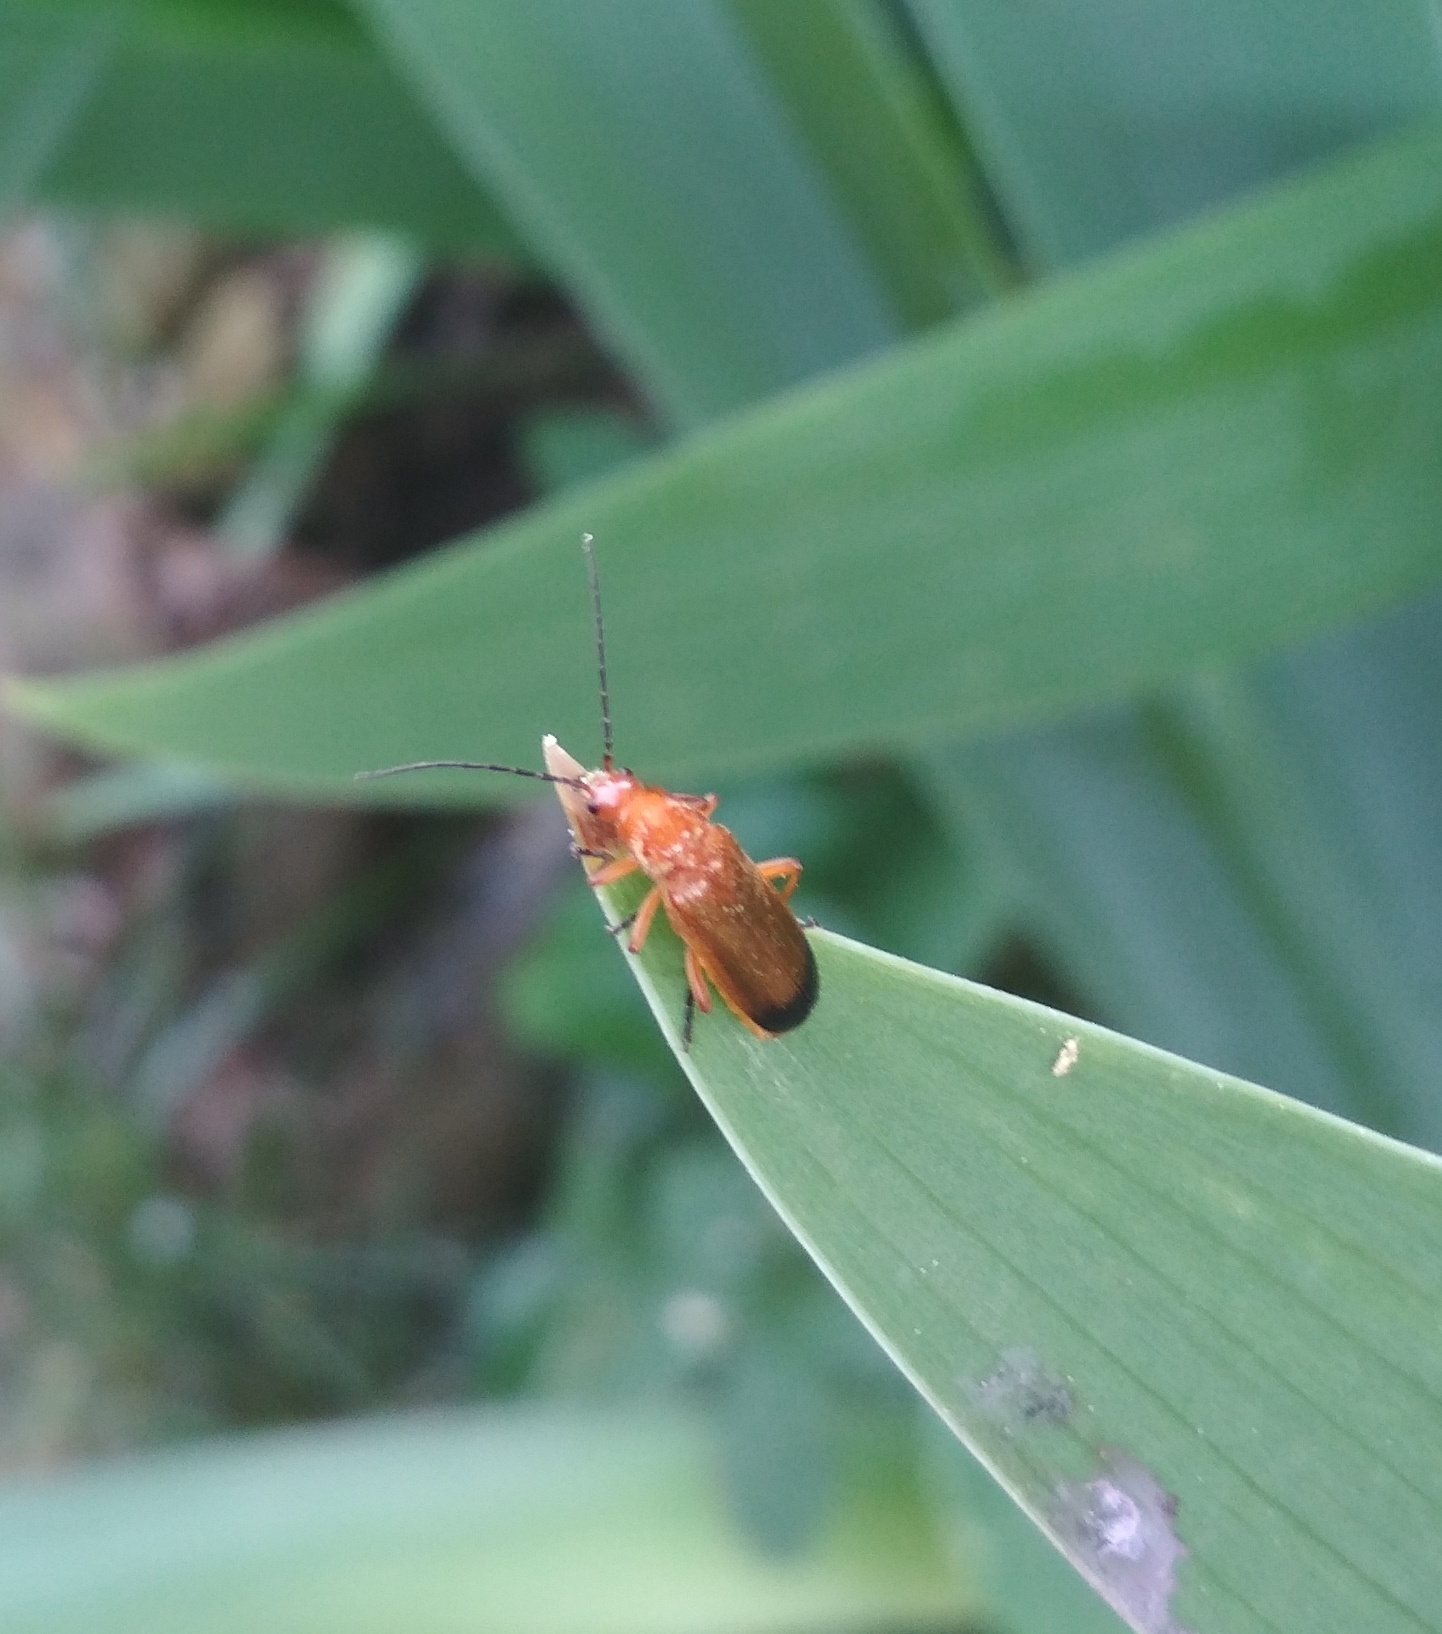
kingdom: Animalia
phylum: Arthropoda
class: Insecta
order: Coleoptera
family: Cantharidae
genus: Rhagonycha
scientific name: Rhagonycha fulva
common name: Common red soldier beetle
